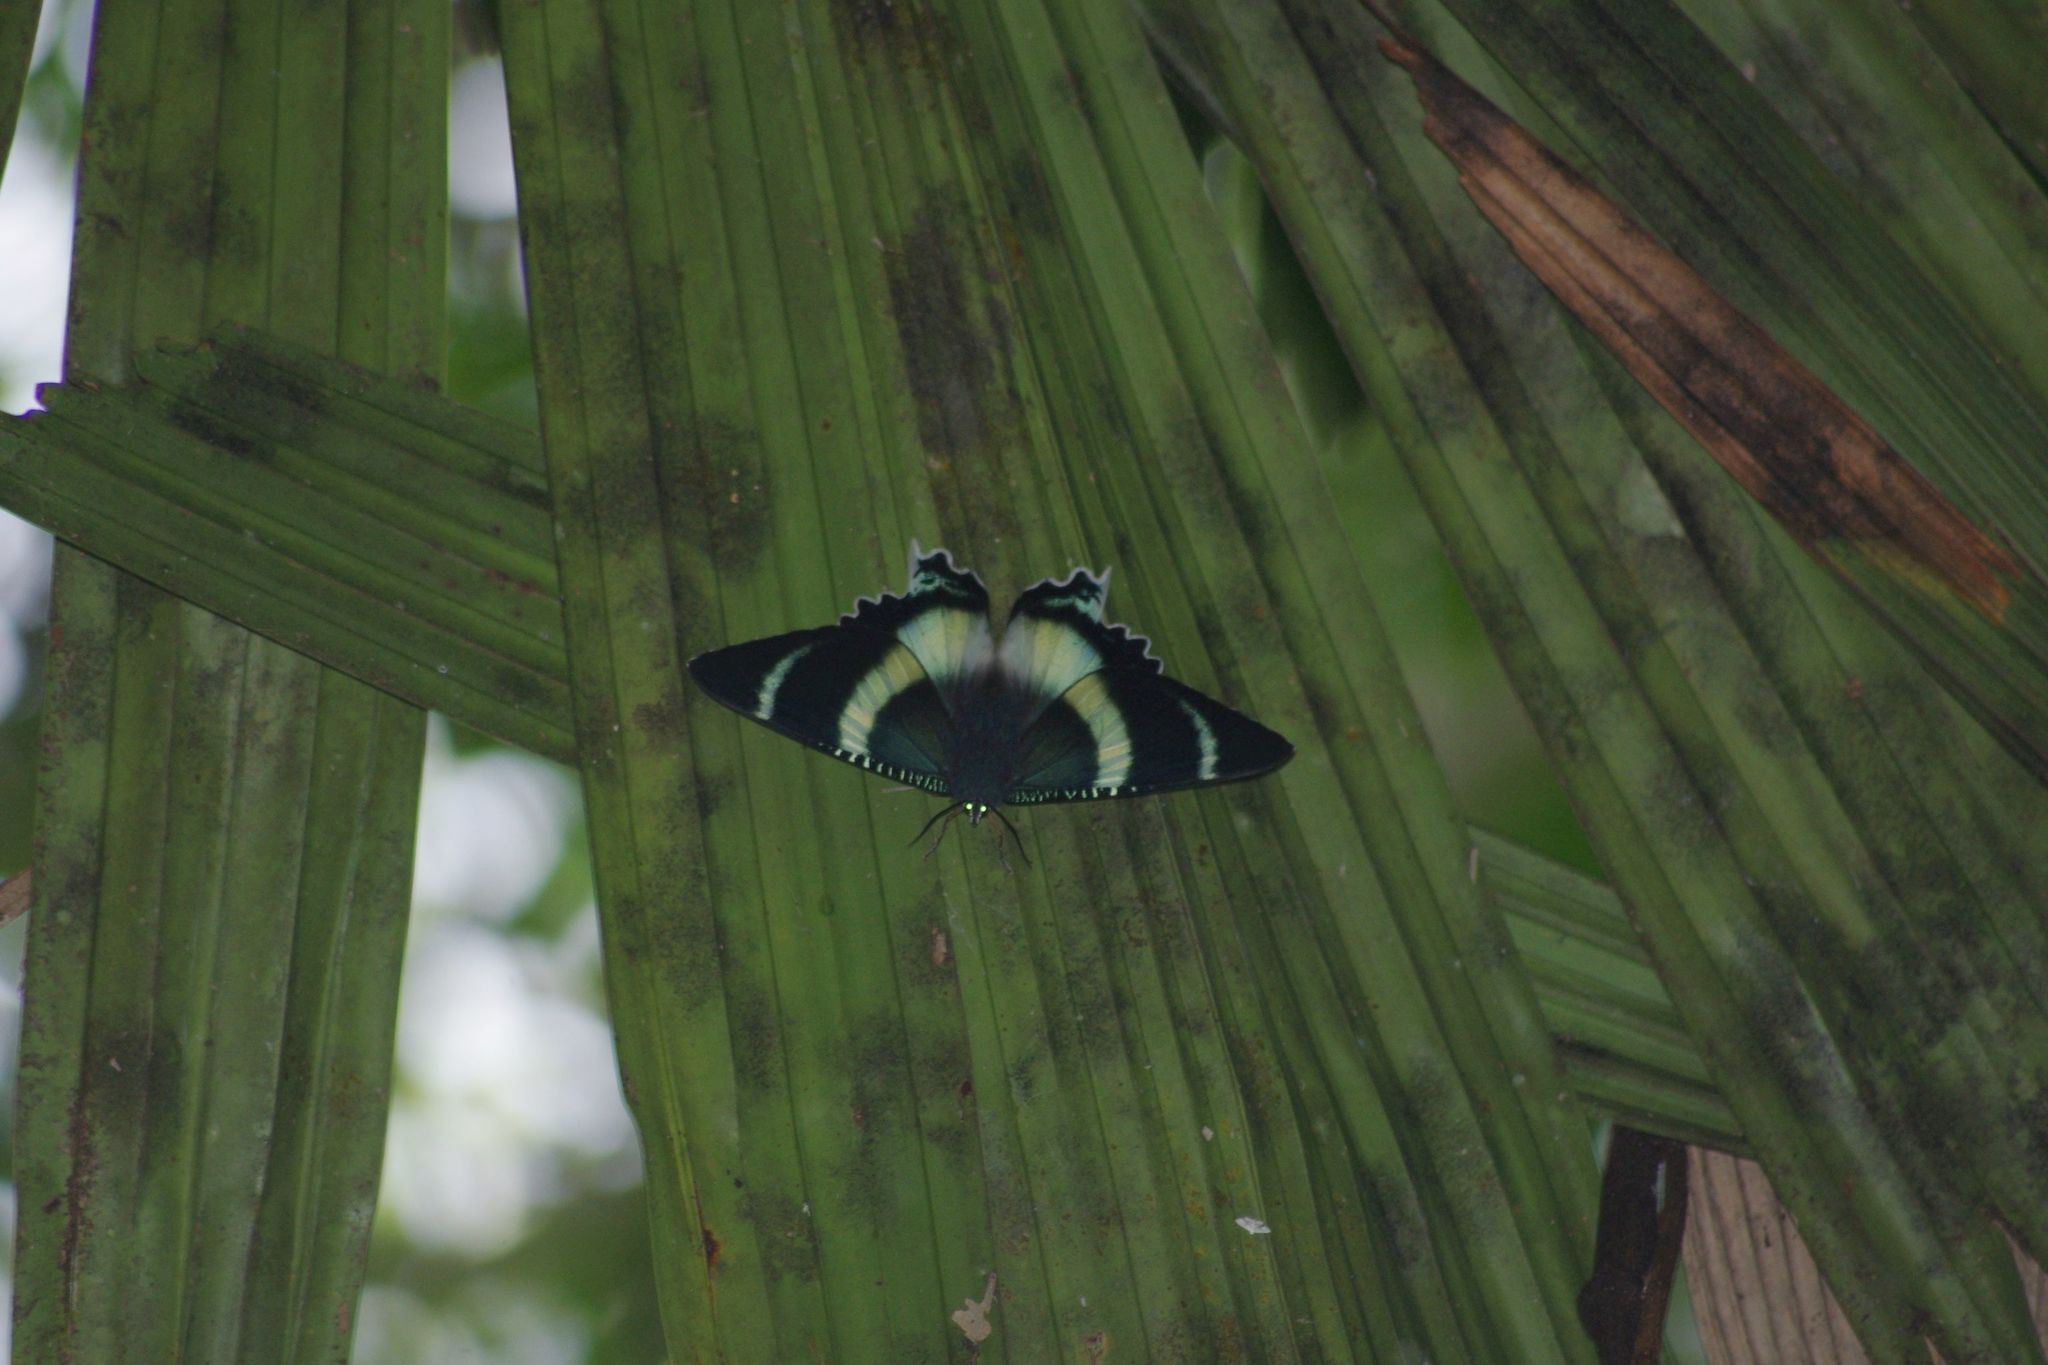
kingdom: Animalia
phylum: Arthropoda
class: Insecta
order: Lepidoptera
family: Uraniidae
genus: Alcides
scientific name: Alcides metaurus
